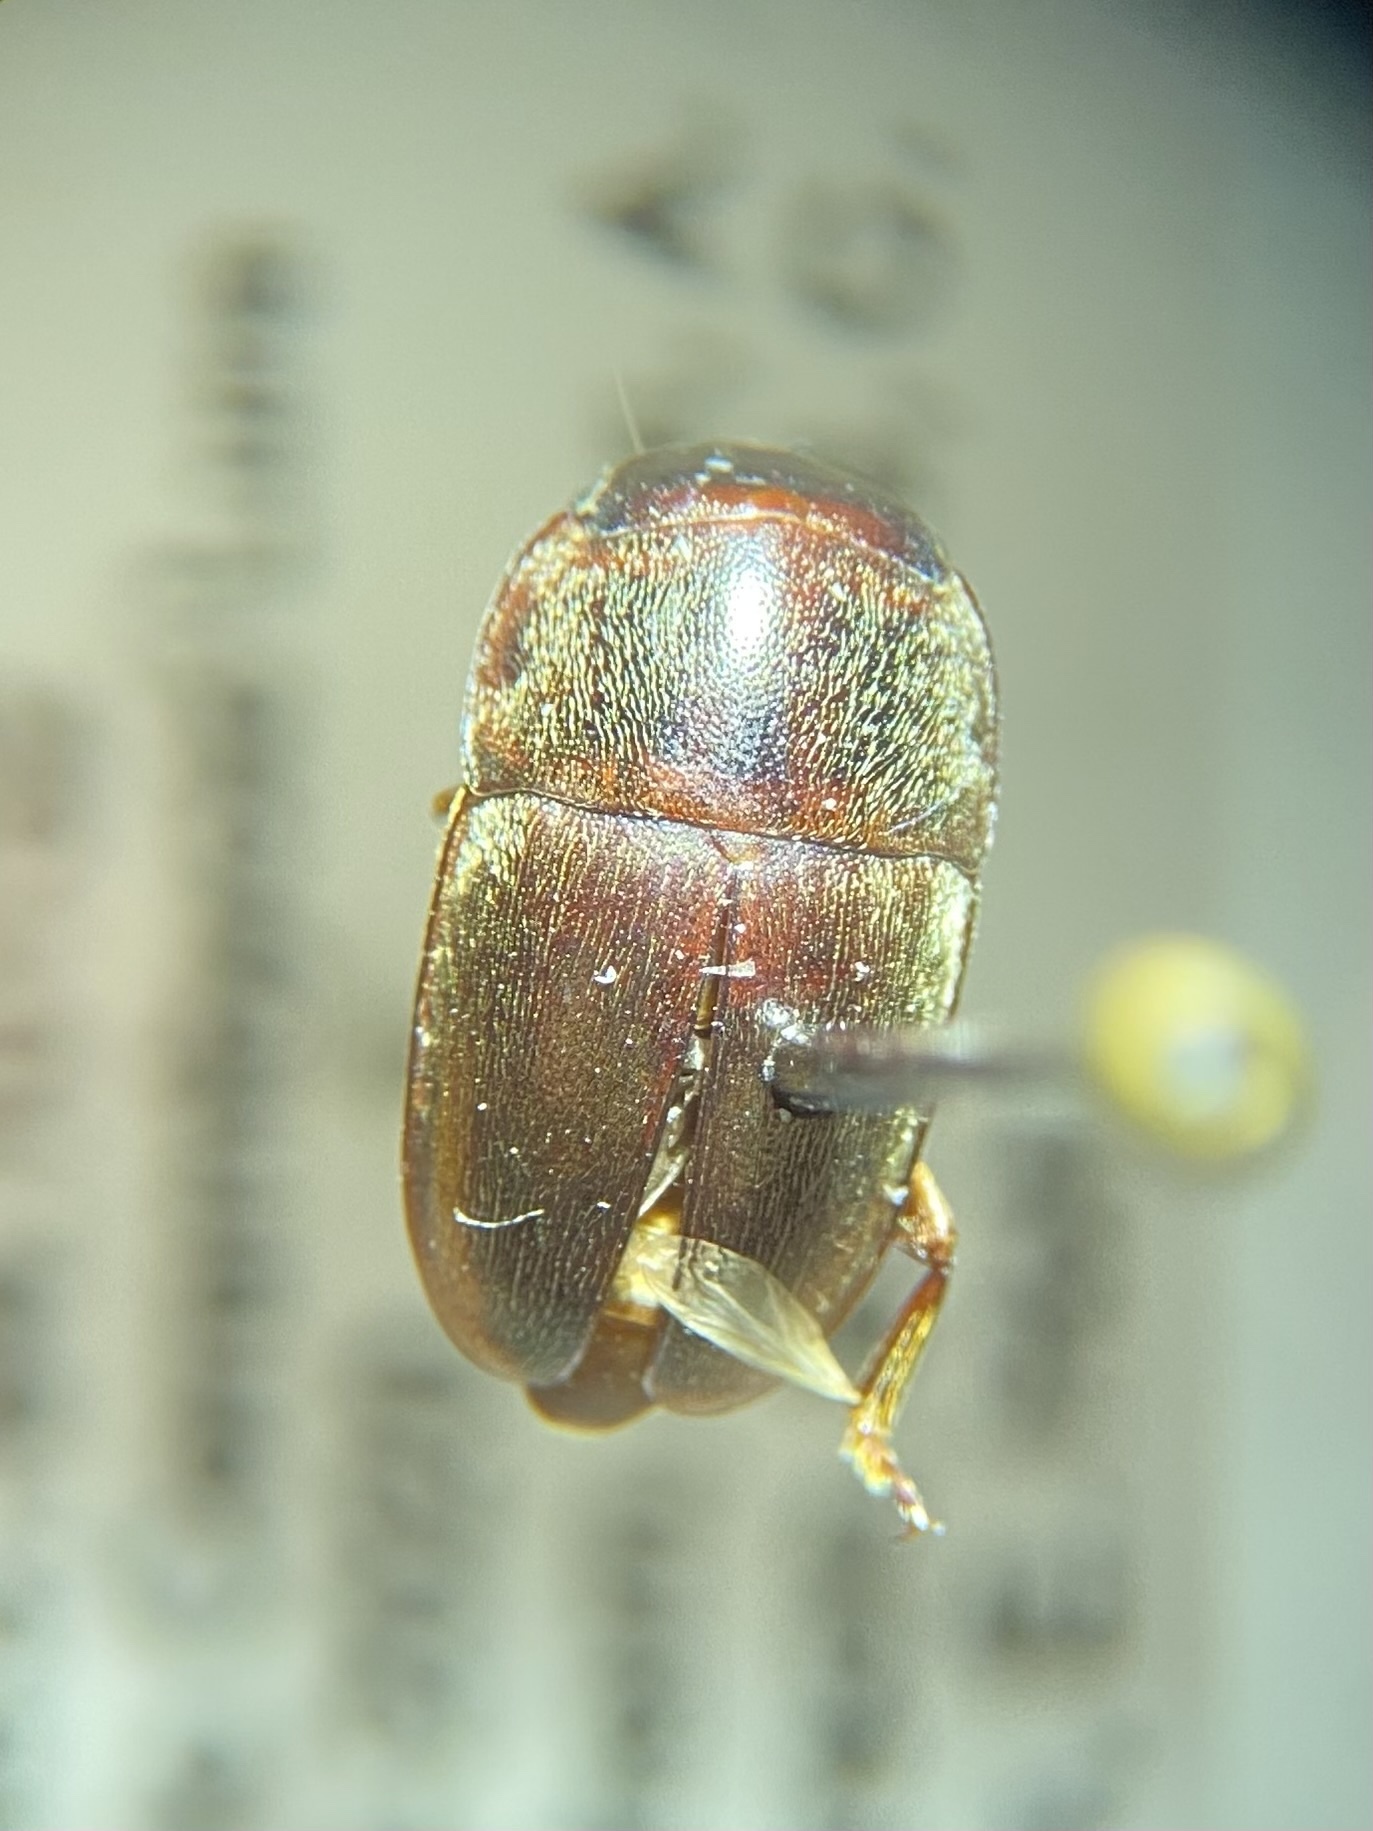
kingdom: Animalia
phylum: Arthropoda
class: Insecta
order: Coleoptera
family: Nitidulidae
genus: Cryptarcha
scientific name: Cryptarcha ampla
